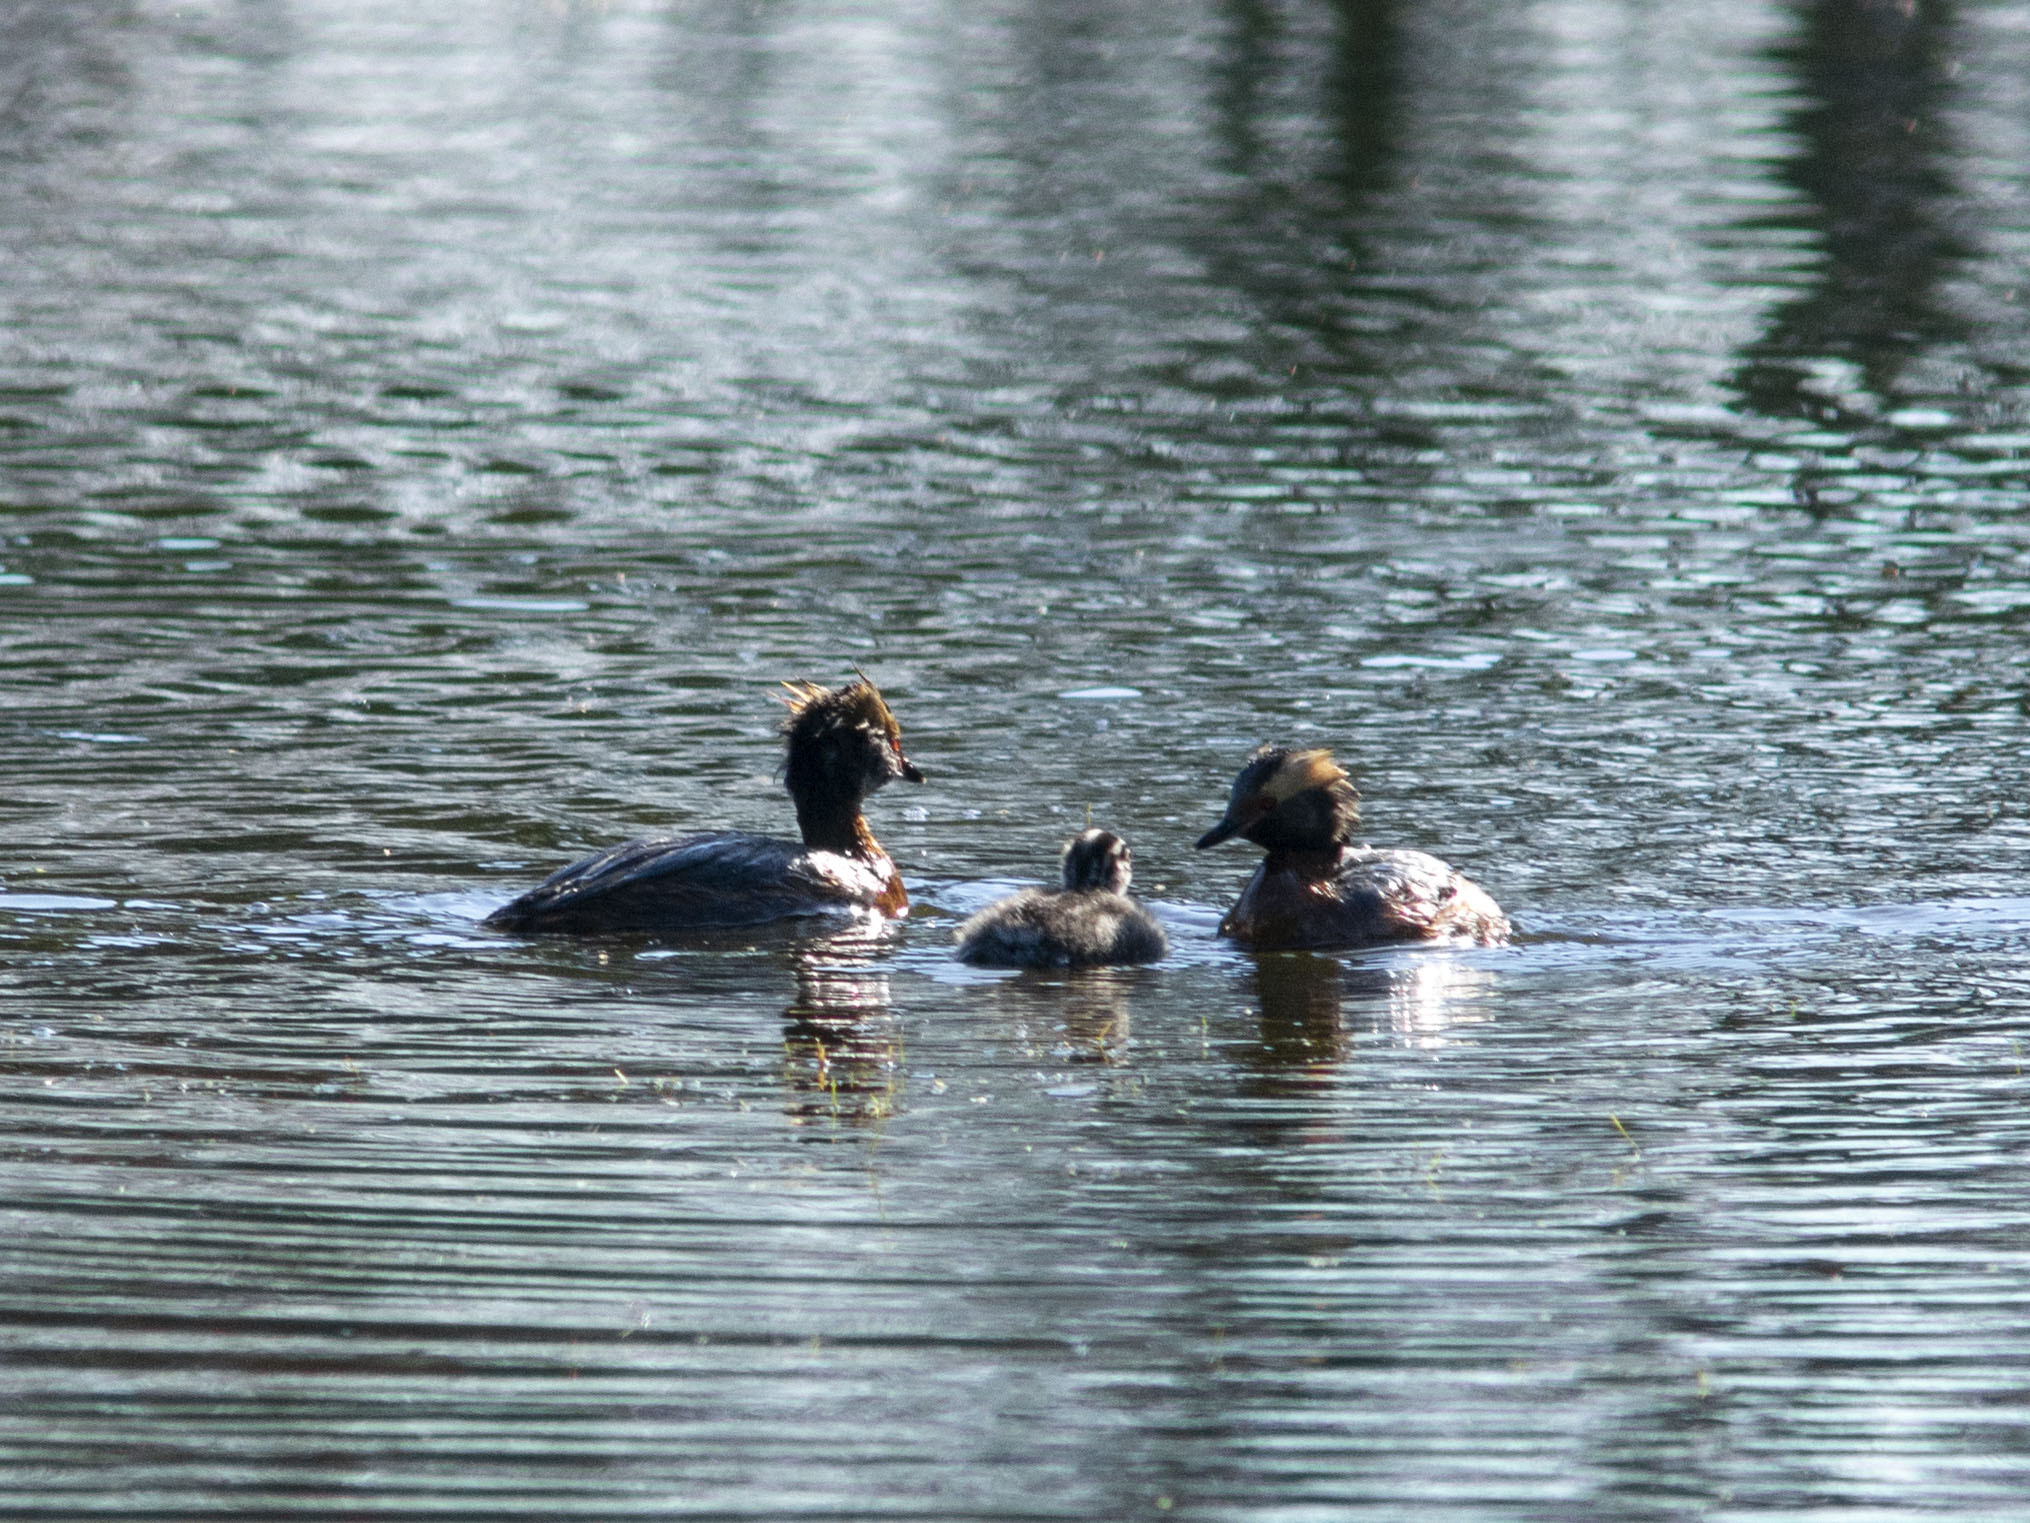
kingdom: Animalia
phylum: Chordata
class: Aves
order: Podicipediformes
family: Podicipedidae
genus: Podiceps
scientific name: Podiceps auritus
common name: Horned grebe
